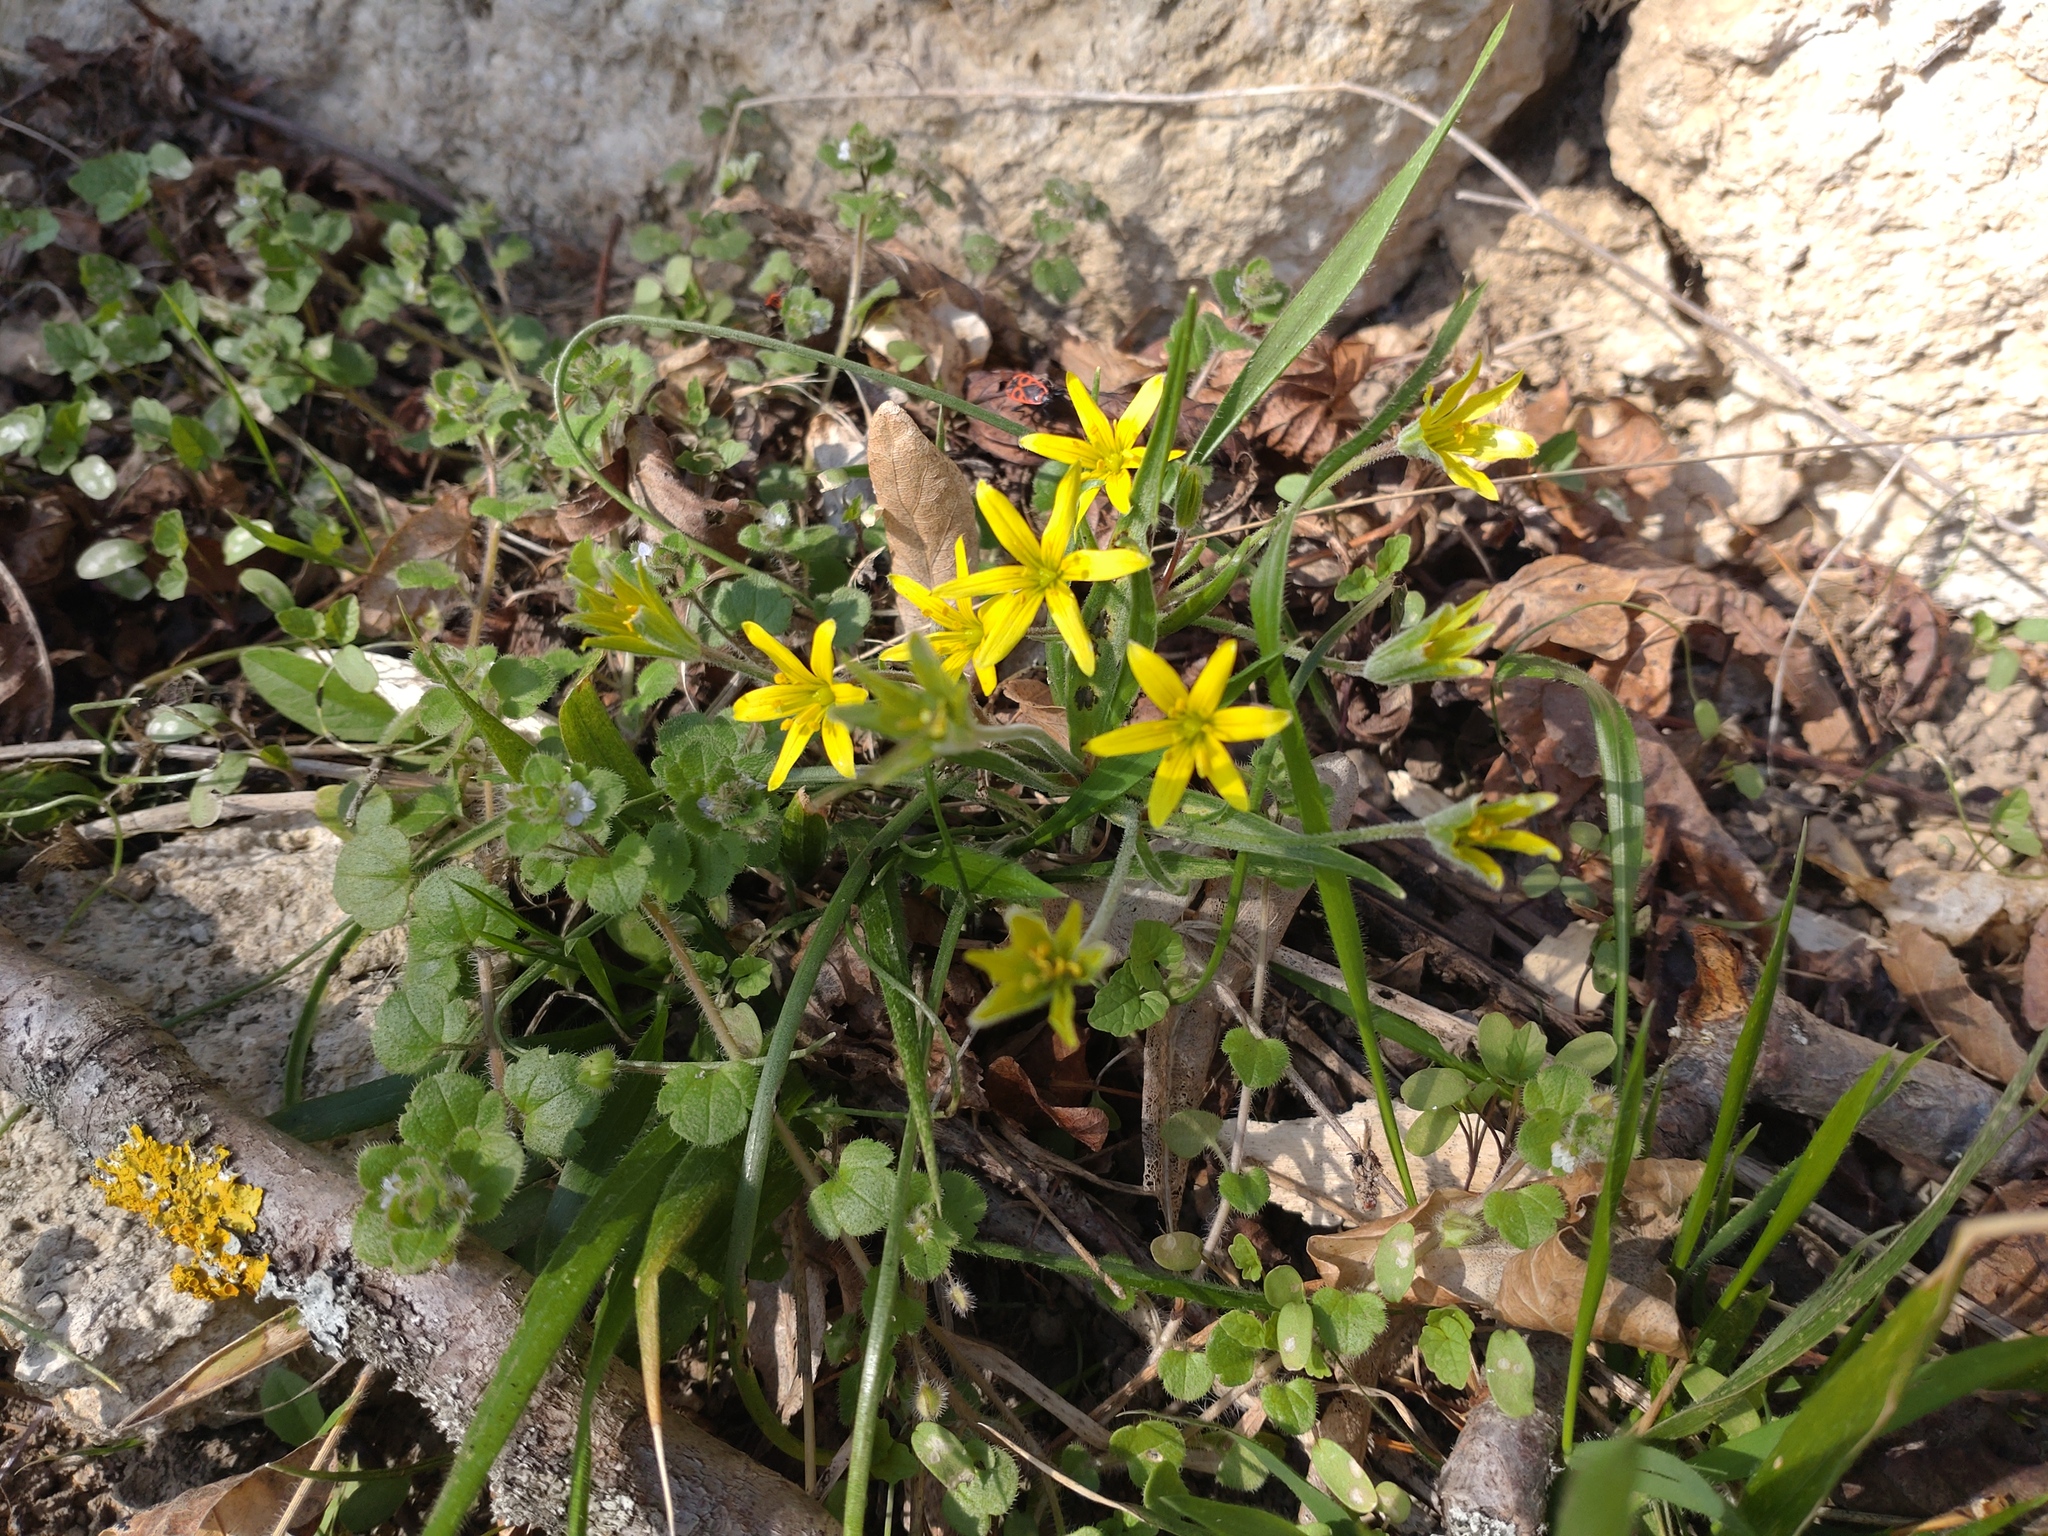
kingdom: Plantae
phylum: Tracheophyta
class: Liliopsida
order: Liliales
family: Liliaceae
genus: Gagea
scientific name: Gagea villosa
